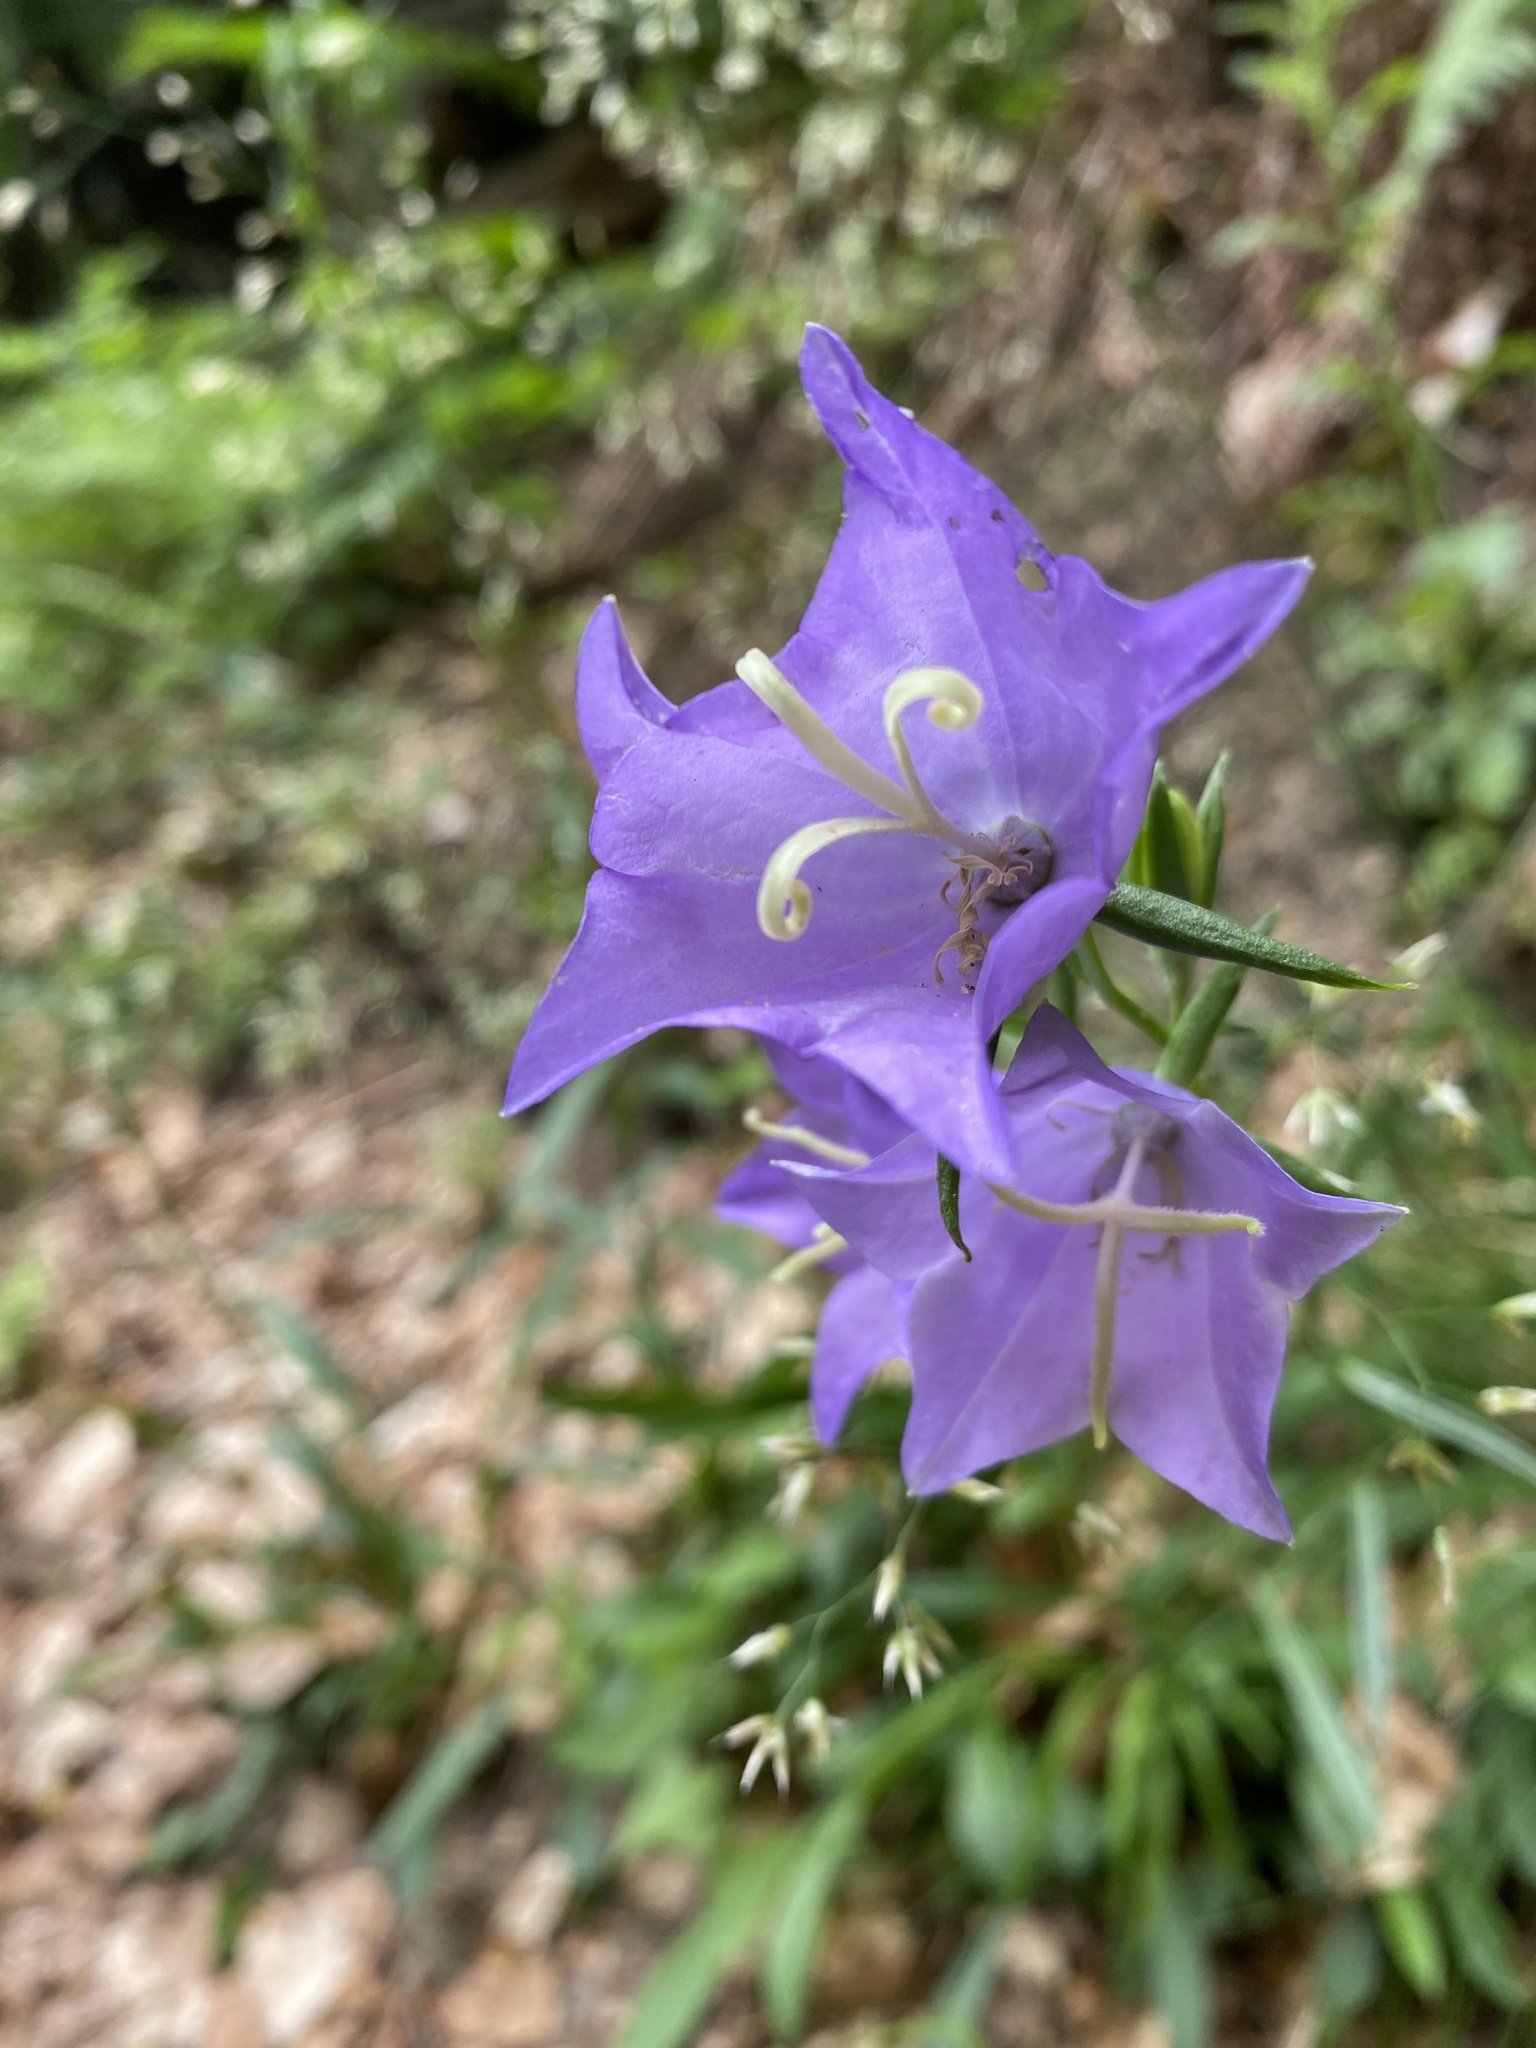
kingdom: Plantae
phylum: Tracheophyta
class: Magnoliopsida
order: Asterales
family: Campanulaceae
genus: Campanula
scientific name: Campanula persicifolia
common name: Peach-leaved bellflower
